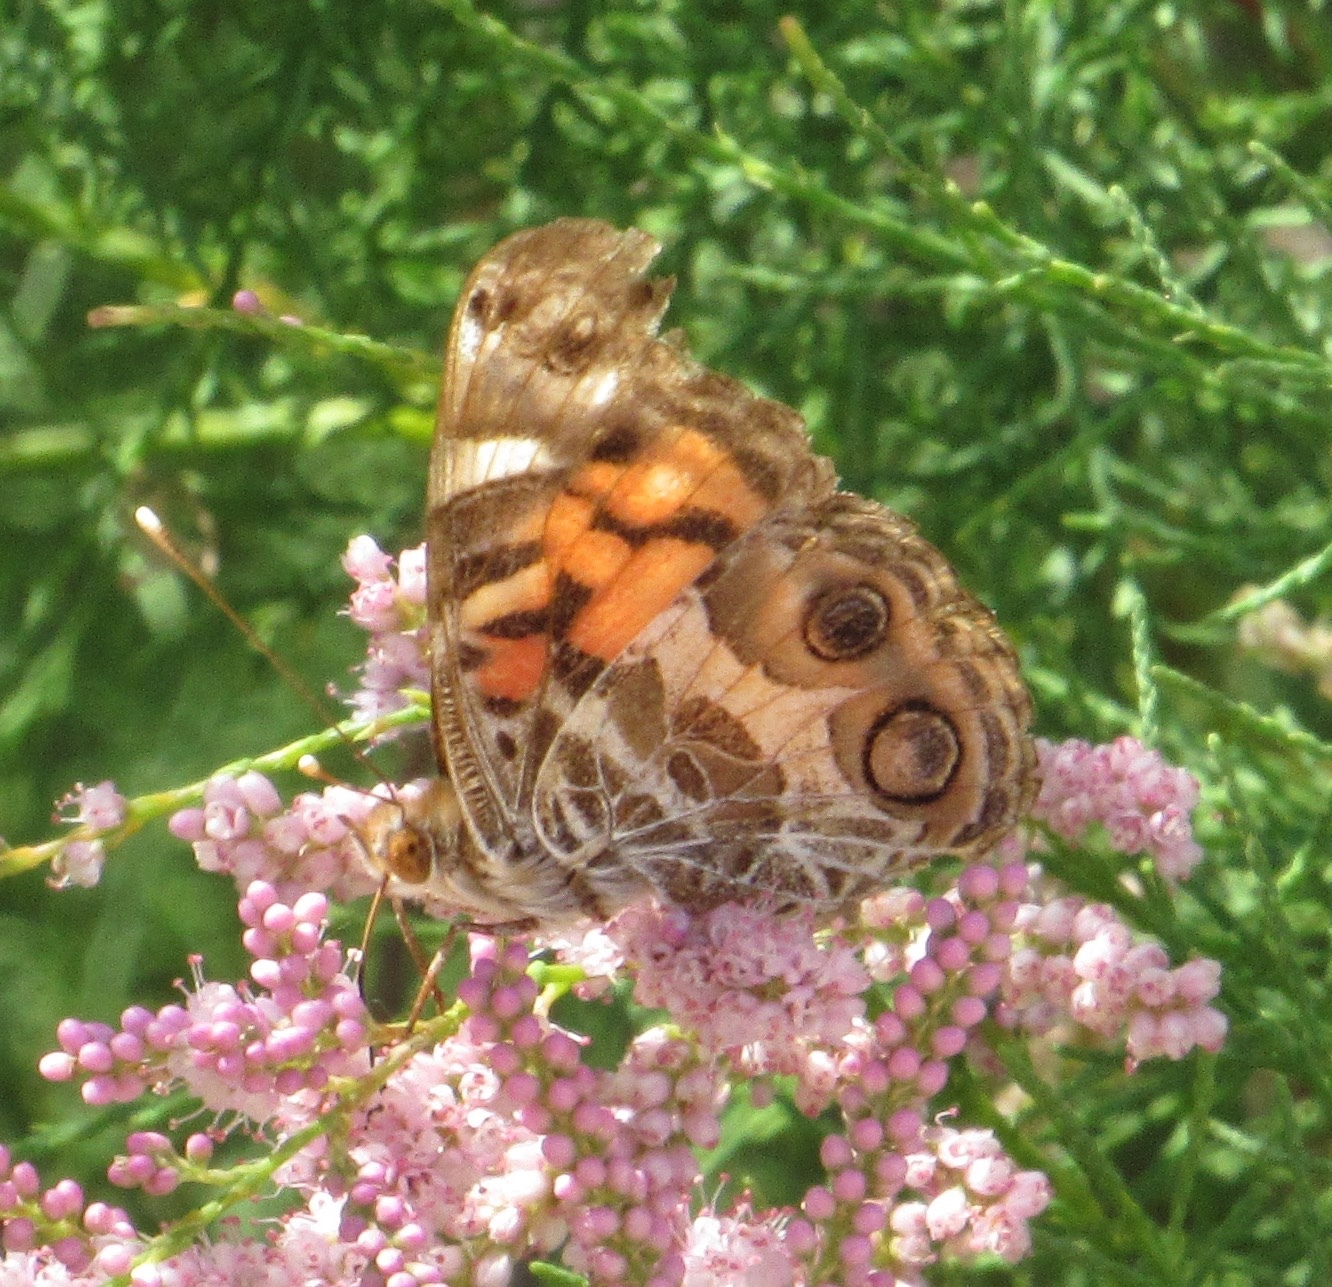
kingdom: Animalia
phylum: Arthropoda
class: Insecta
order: Lepidoptera
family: Nymphalidae
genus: Vanessa
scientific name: Vanessa virginiensis
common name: American lady
